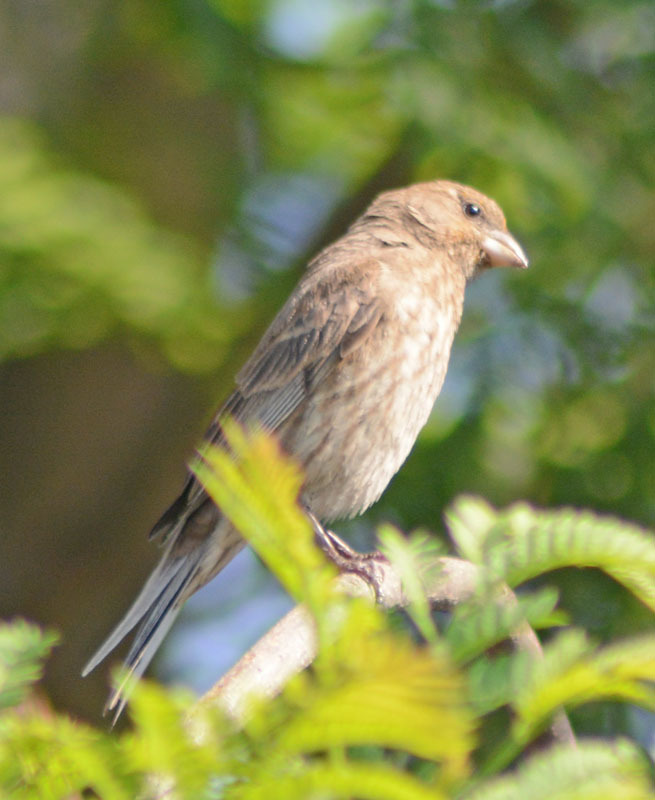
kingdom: Animalia
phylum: Chordata
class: Aves
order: Passeriformes
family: Fringillidae
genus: Haemorhous
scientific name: Haemorhous mexicanus
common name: House finch
